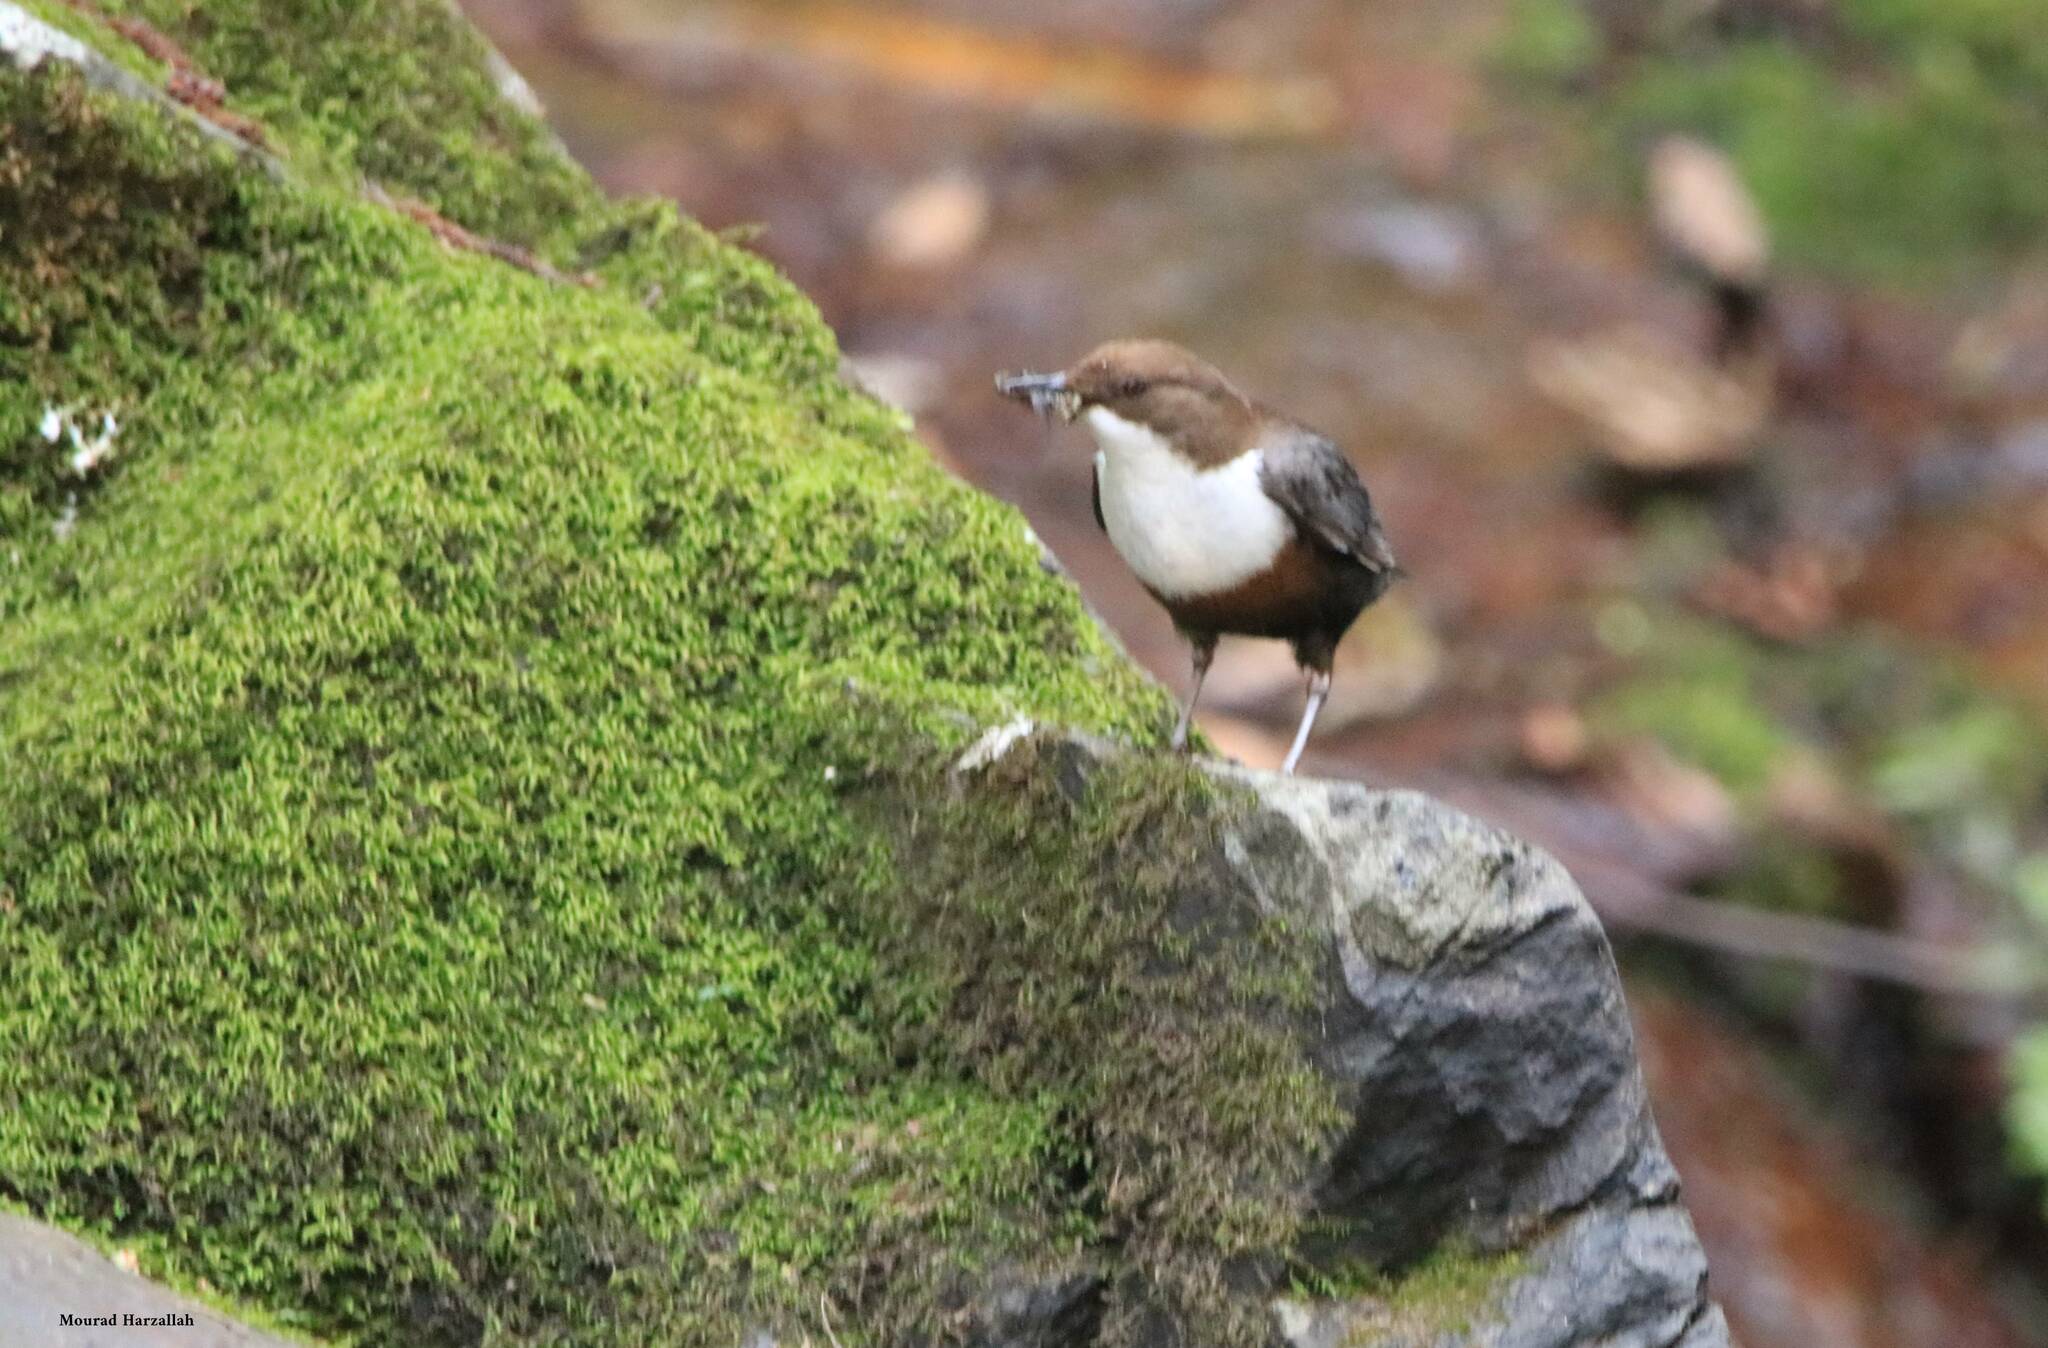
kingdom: Animalia
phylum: Chordata
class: Aves
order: Passeriformes
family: Cinclidae
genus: Cinclus
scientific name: Cinclus cinclus
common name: White-throated dipper
